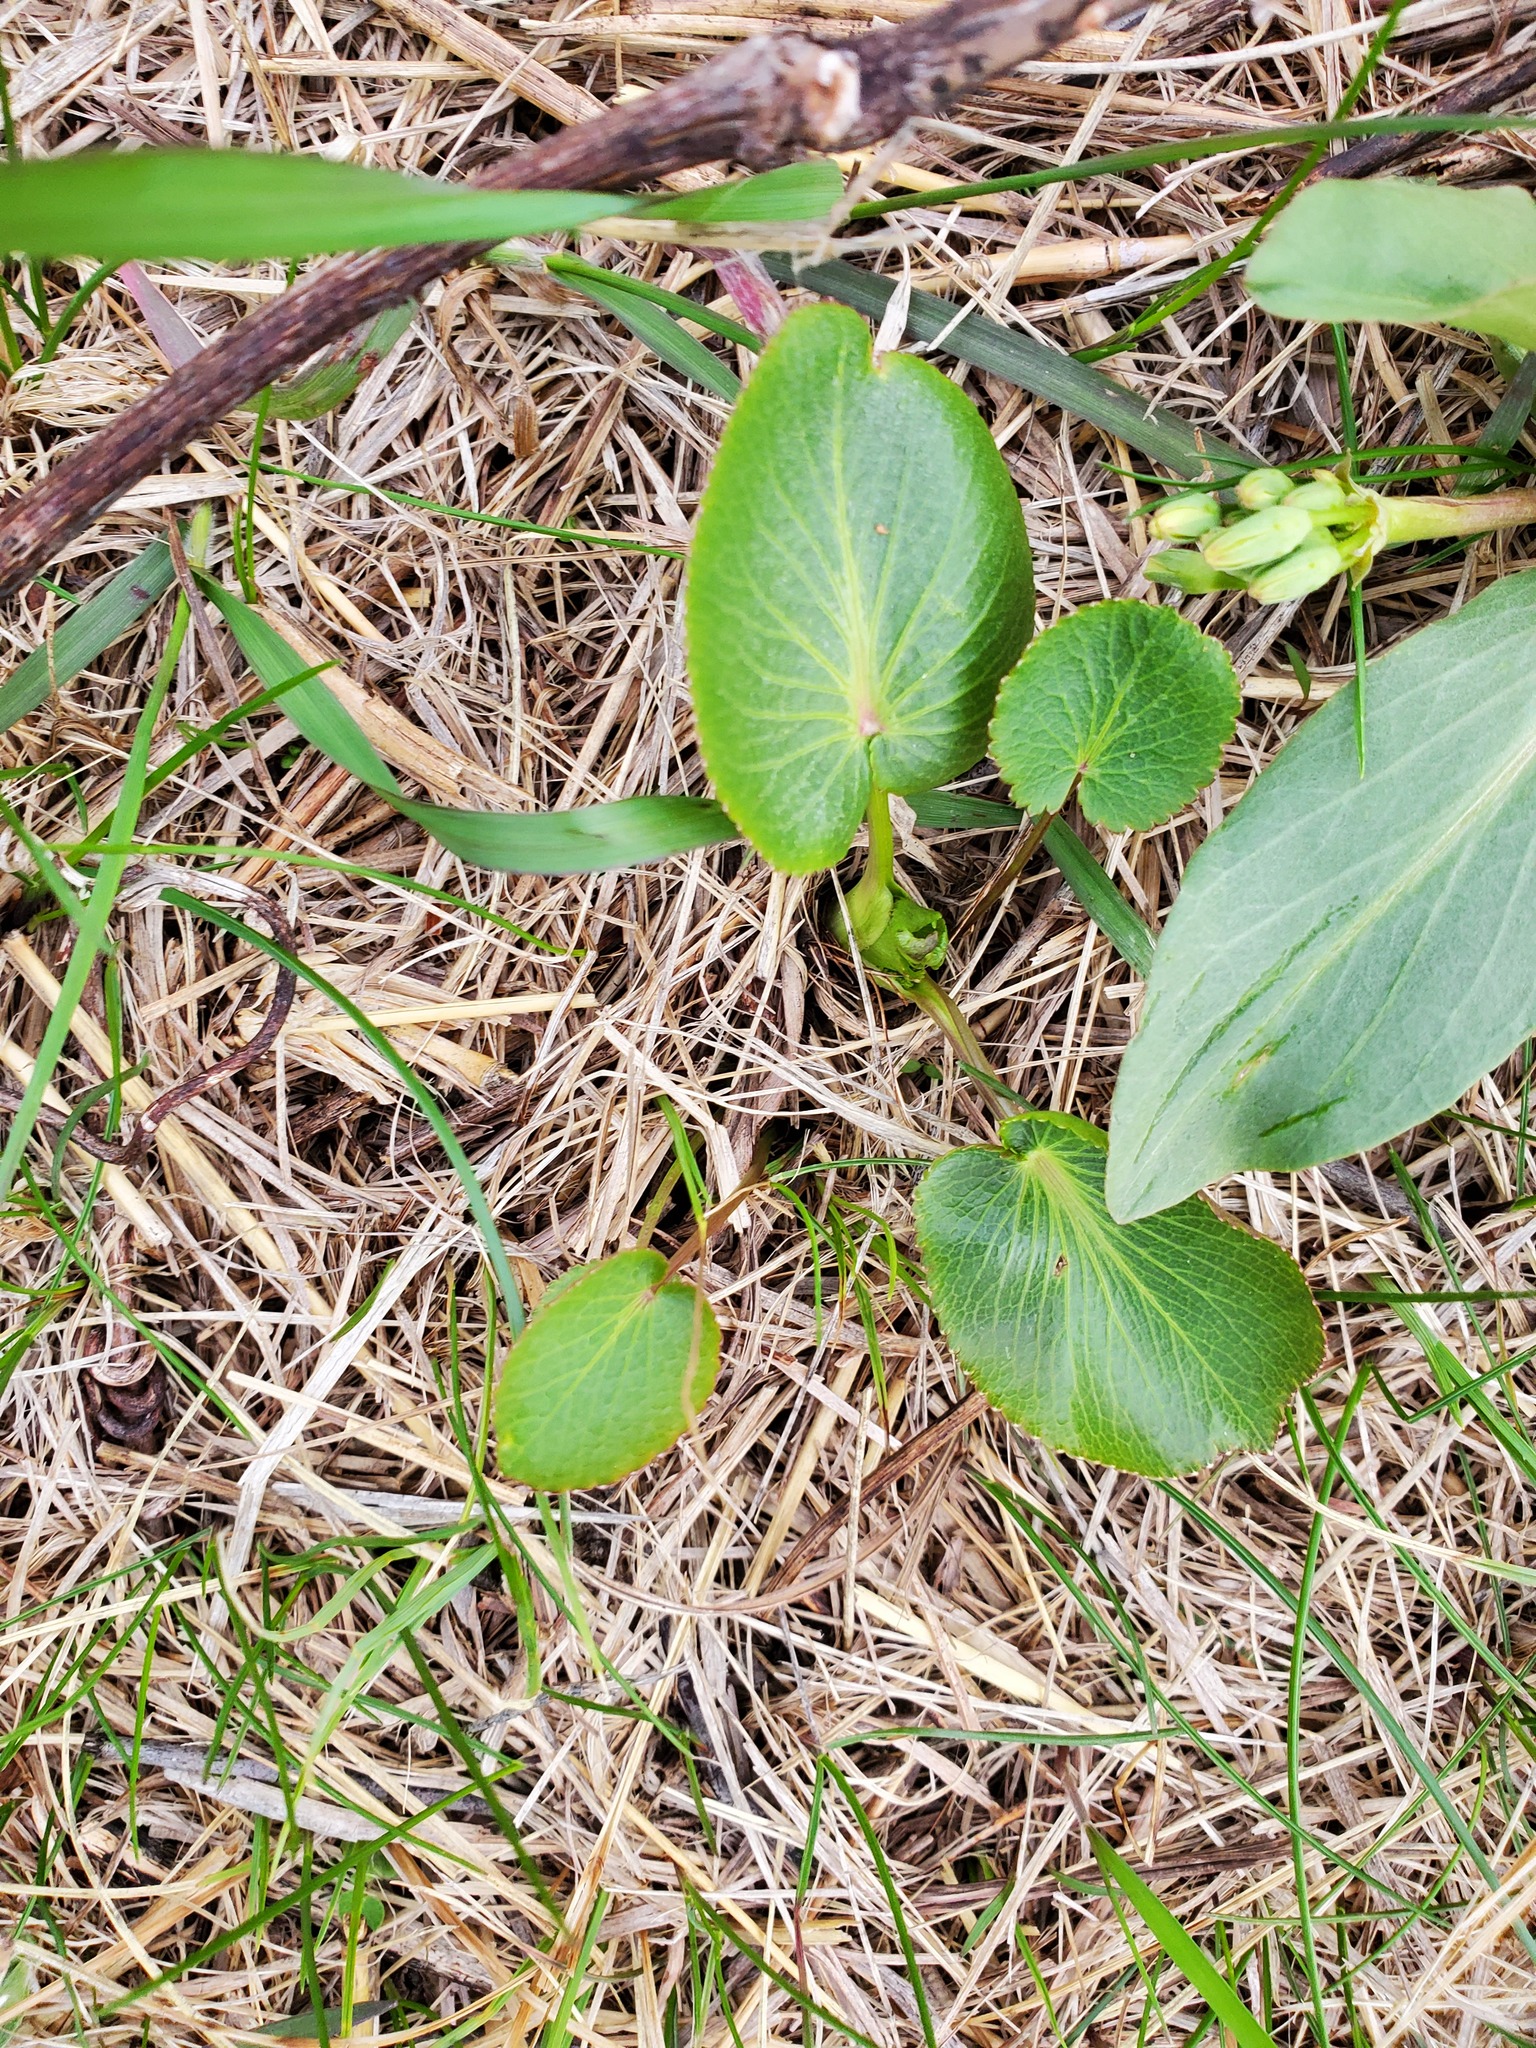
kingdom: Plantae
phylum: Tracheophyta
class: Magnoliopsida
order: Apiales
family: Apiaceae
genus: Zizia
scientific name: Zizia aptera
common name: Heart-leaved alexanders
